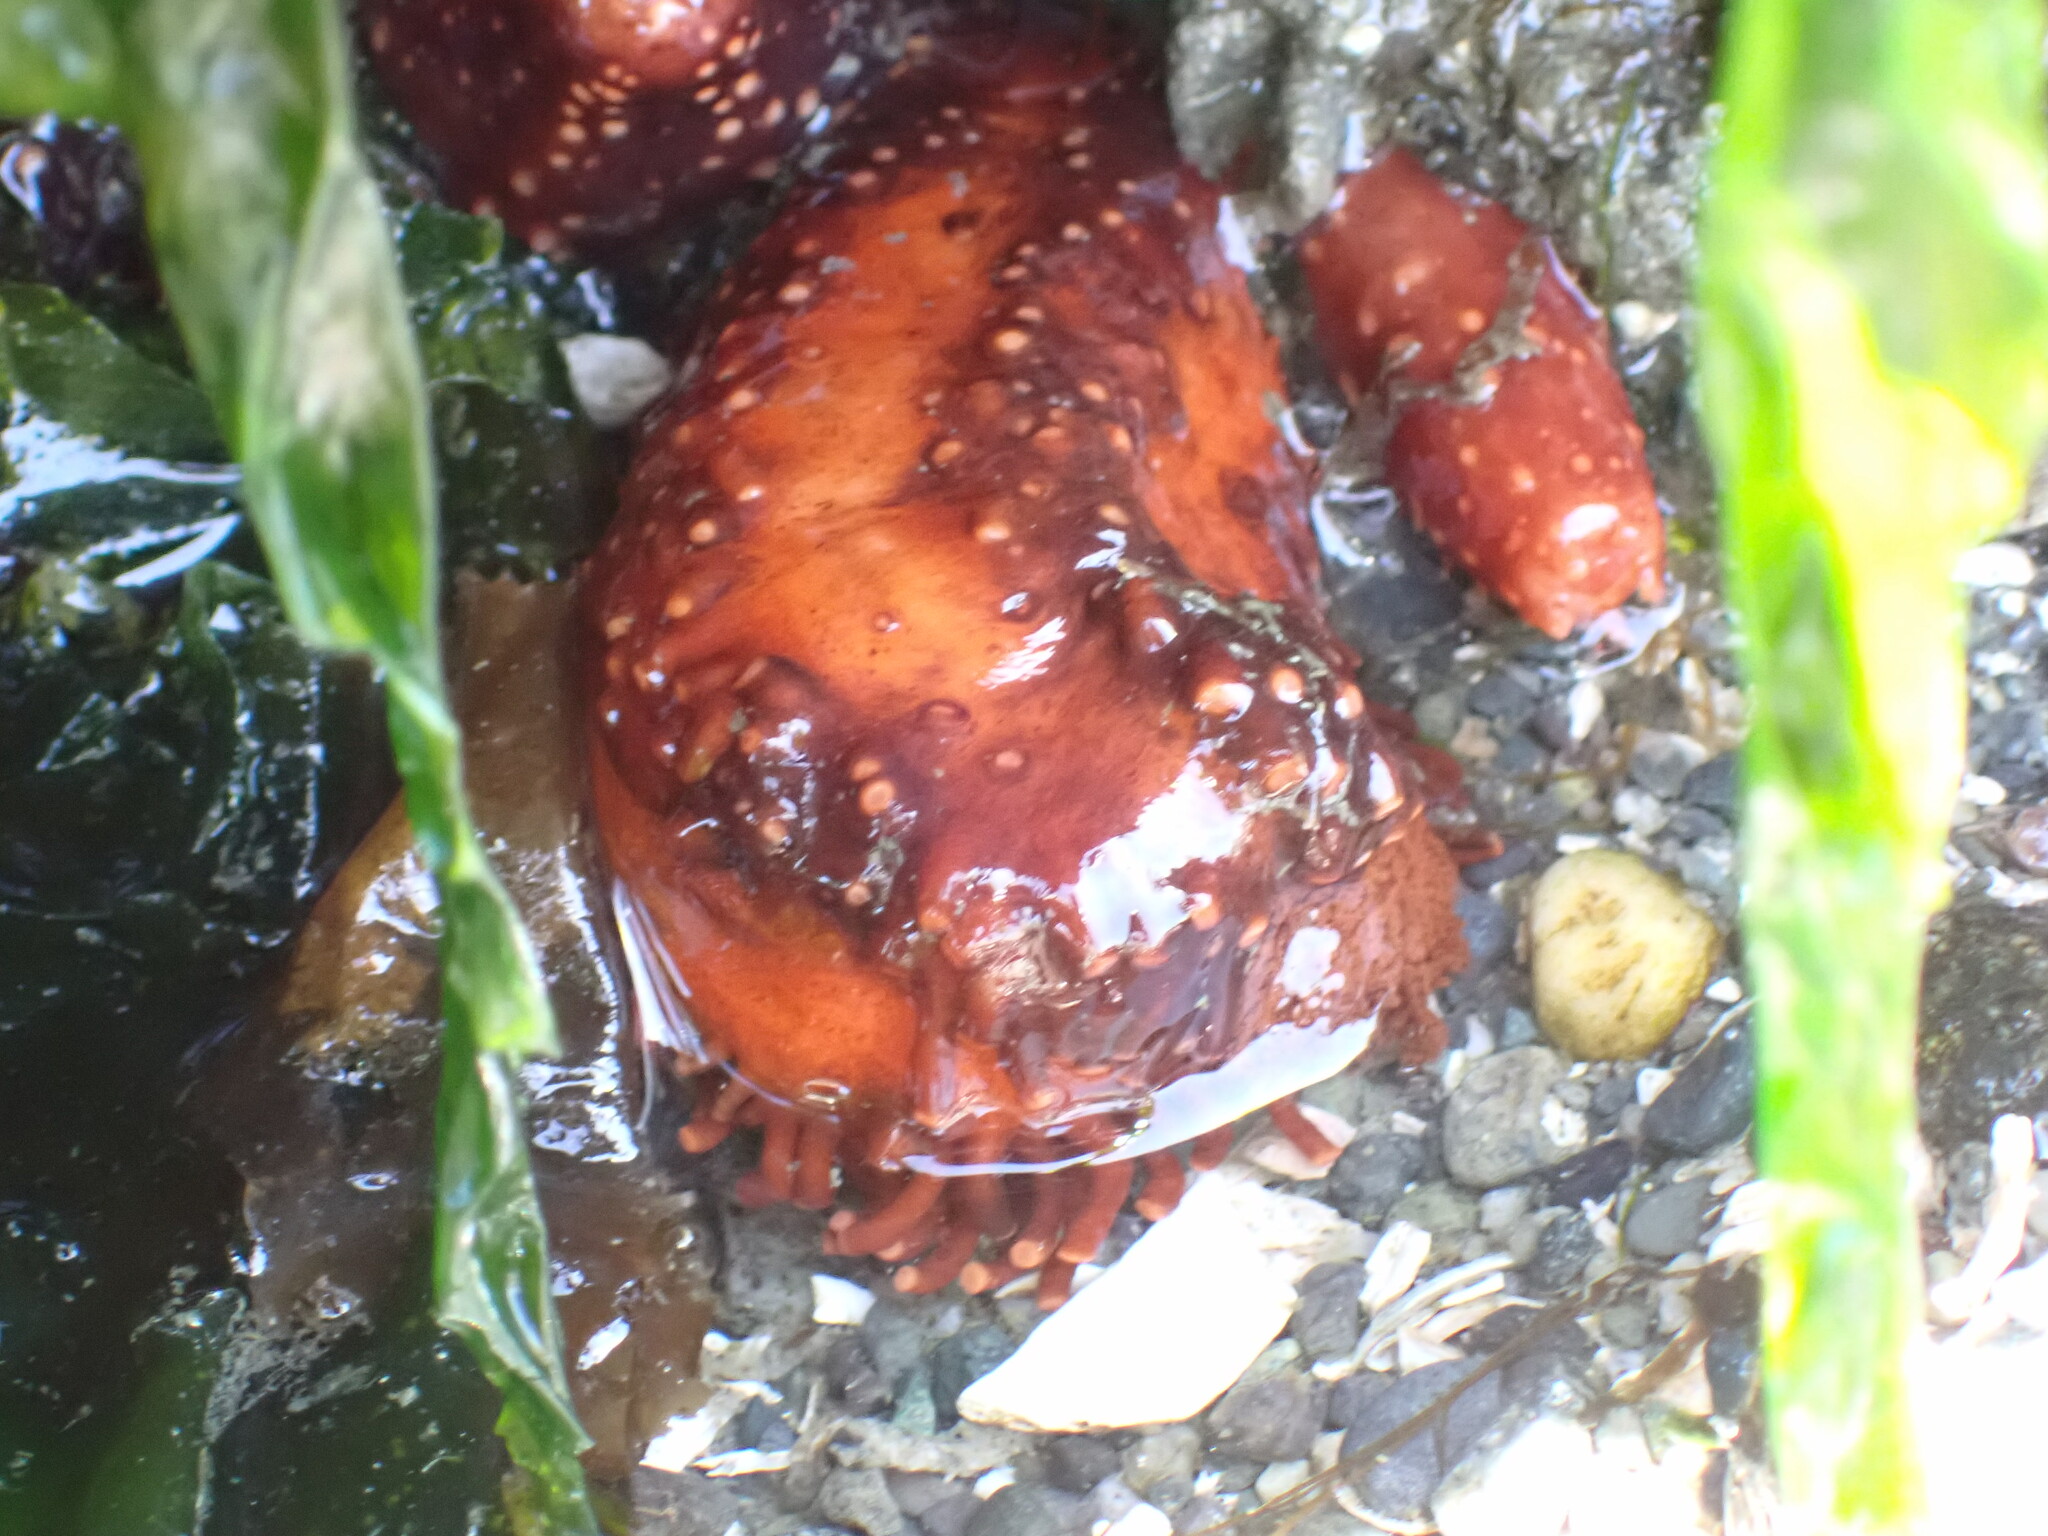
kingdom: Animalia
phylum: Echinodermata
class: Holothuroidea
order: Dendrochirotida
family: Cucumariidae
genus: Cucumaria
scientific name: Cucumaria miniata
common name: Orange sea cucumber
